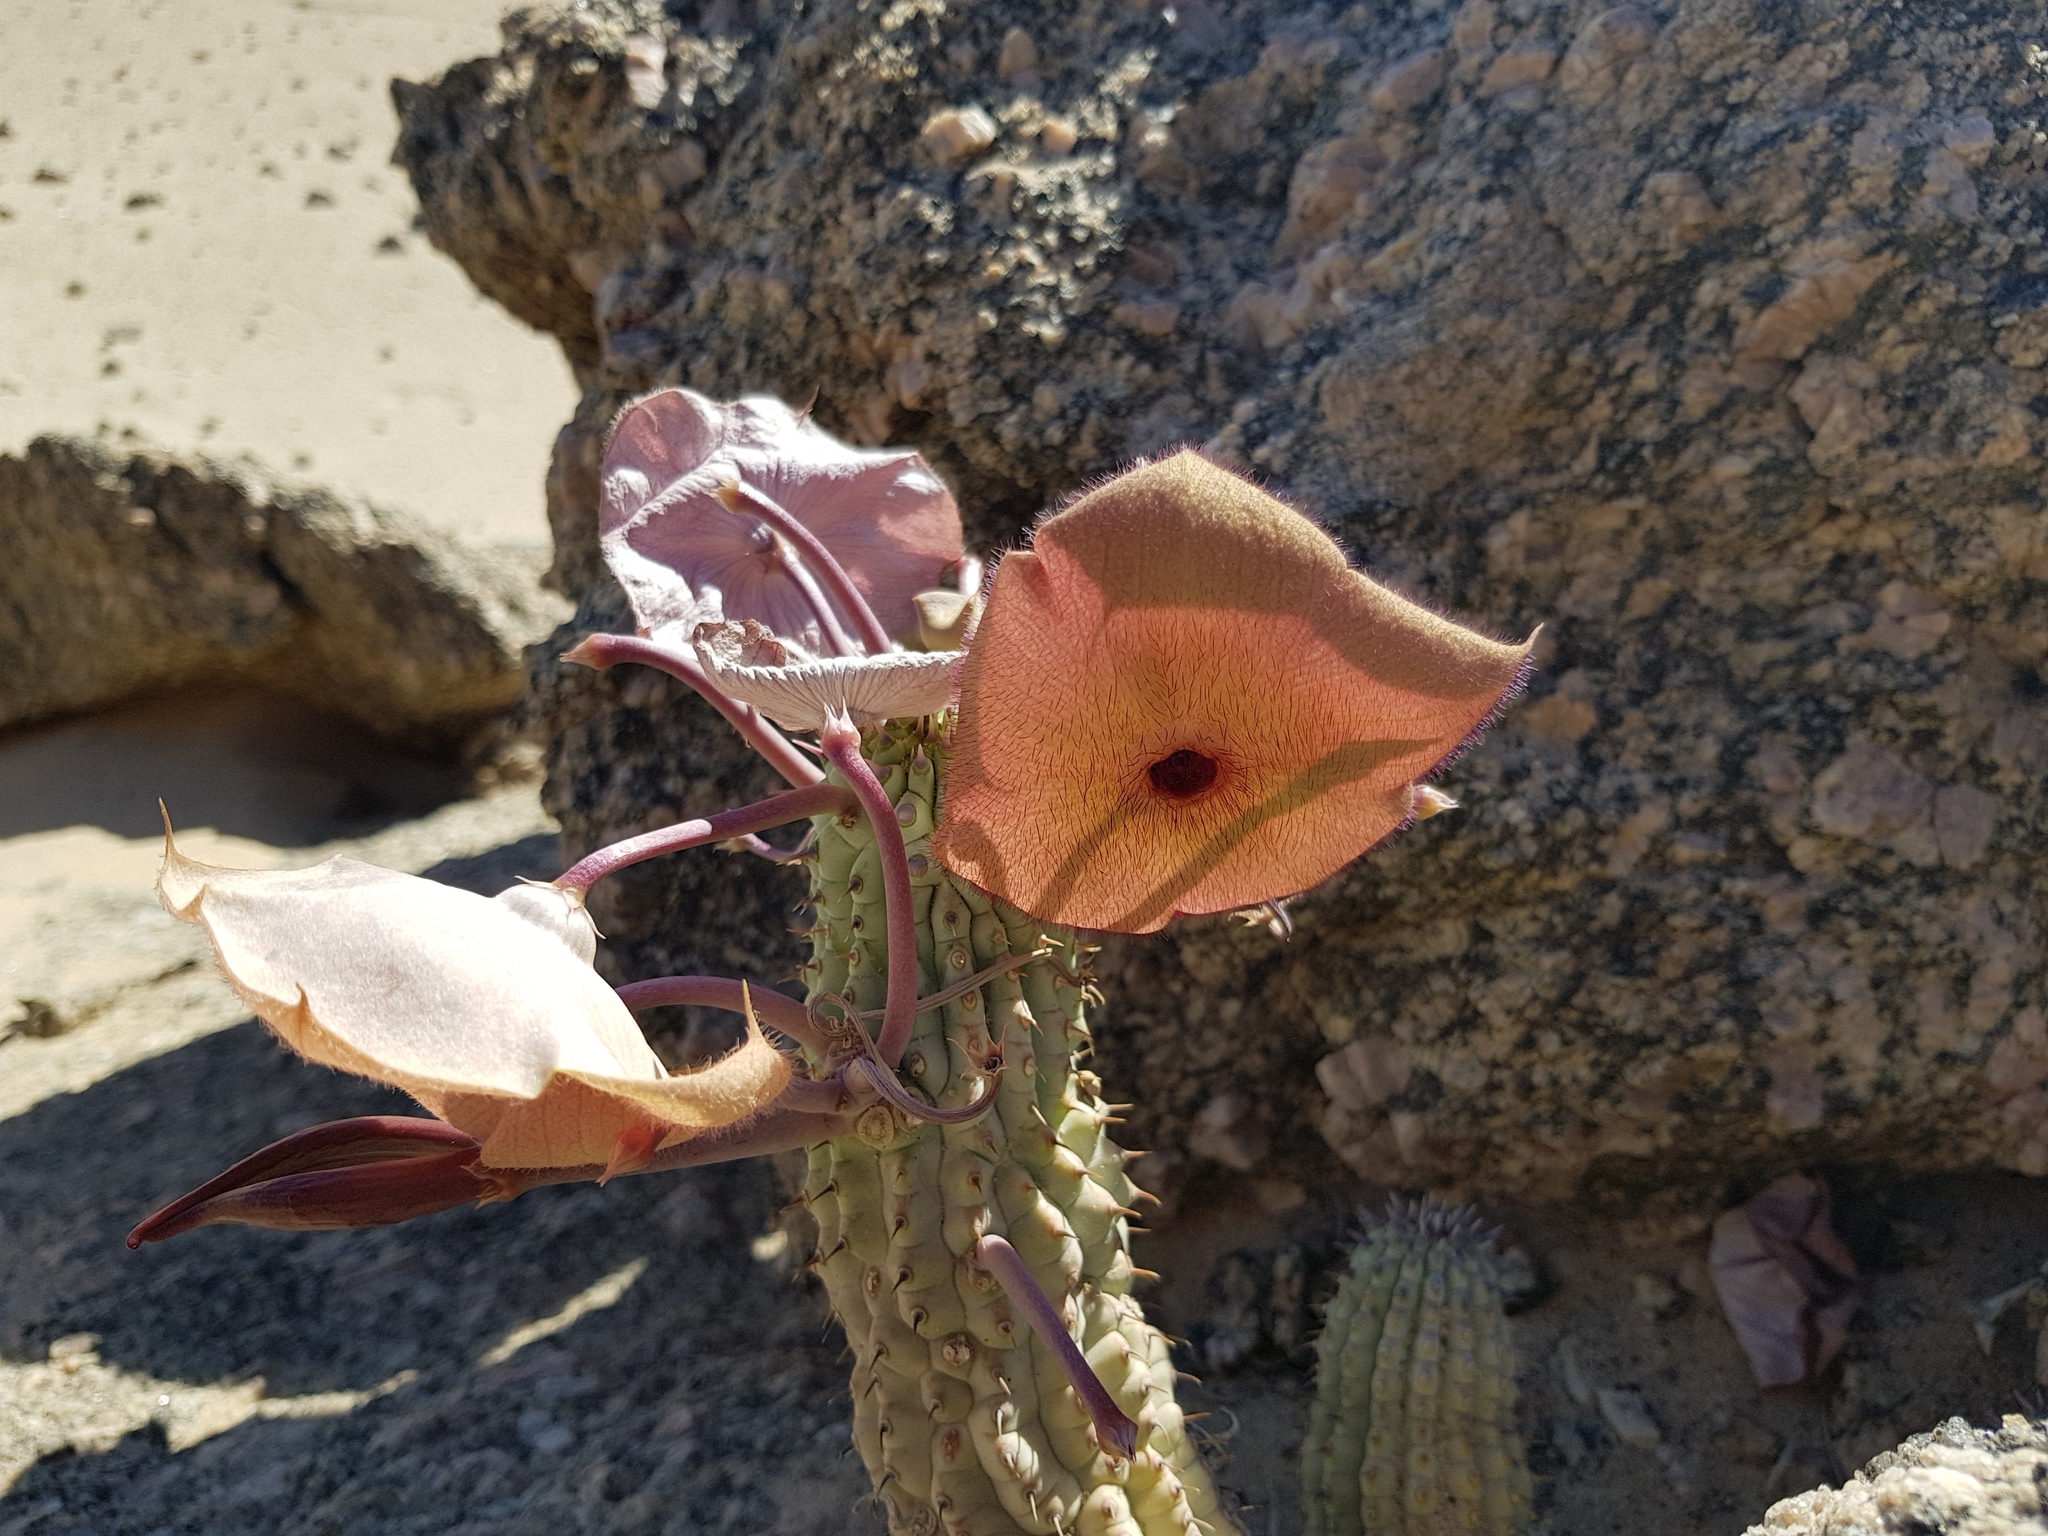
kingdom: Plantae
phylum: Tracheophyta
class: Magnoliopsida
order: Gentianales
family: Apocynaceae
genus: Ceropegia
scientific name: Ceropegia currorii
